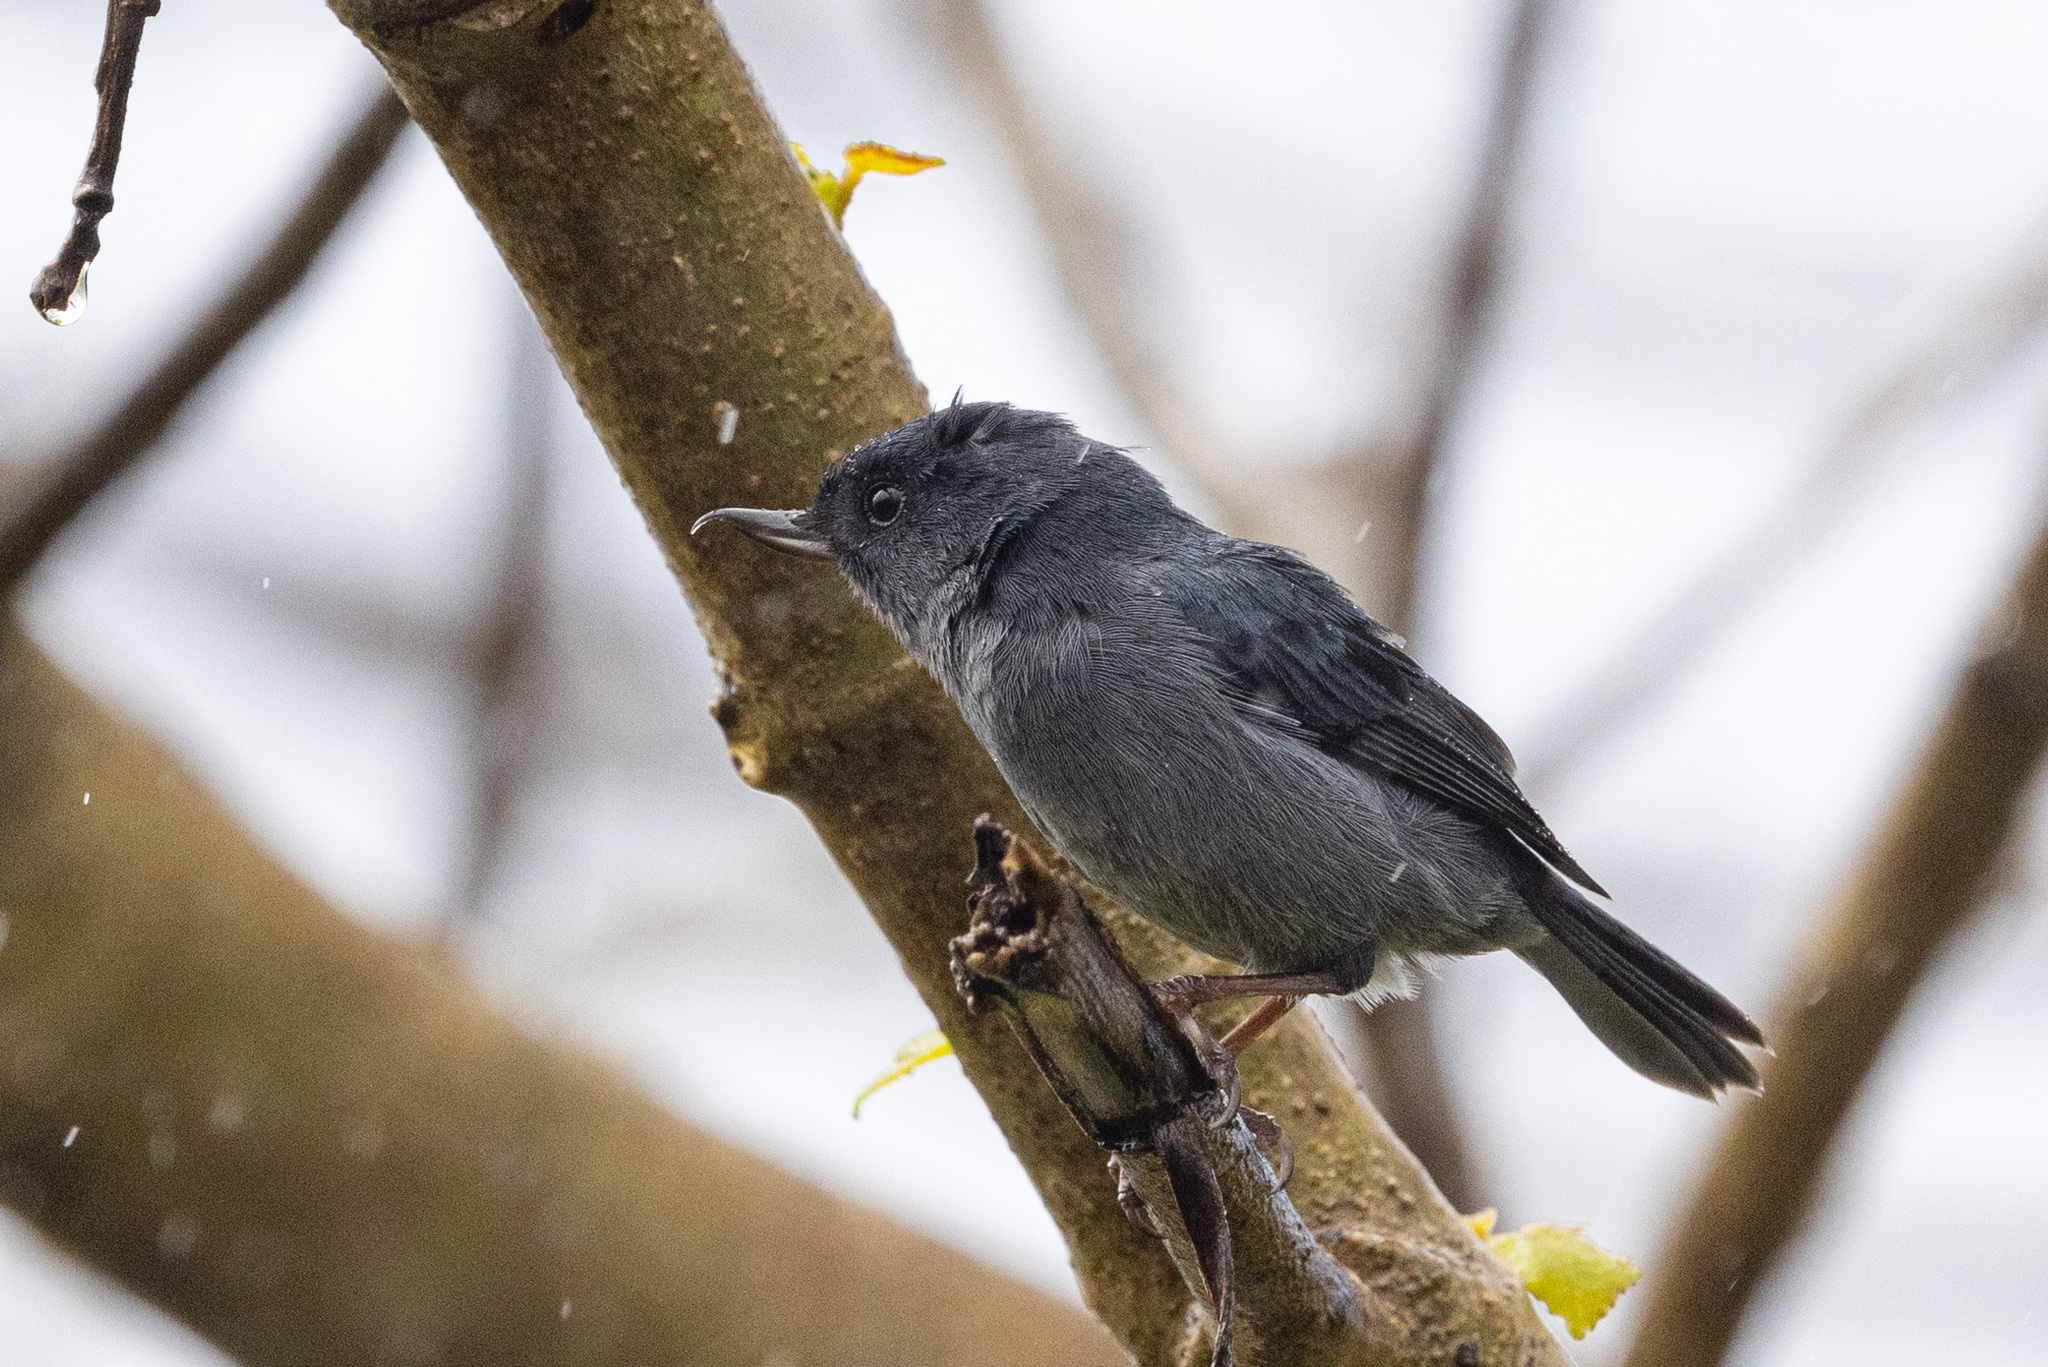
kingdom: Animalia
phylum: Chordata
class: Aves
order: Passeriformes
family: Thraupidae
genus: Diglossa
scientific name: Diglossa plumbea
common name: Slaty flowerpiercer
